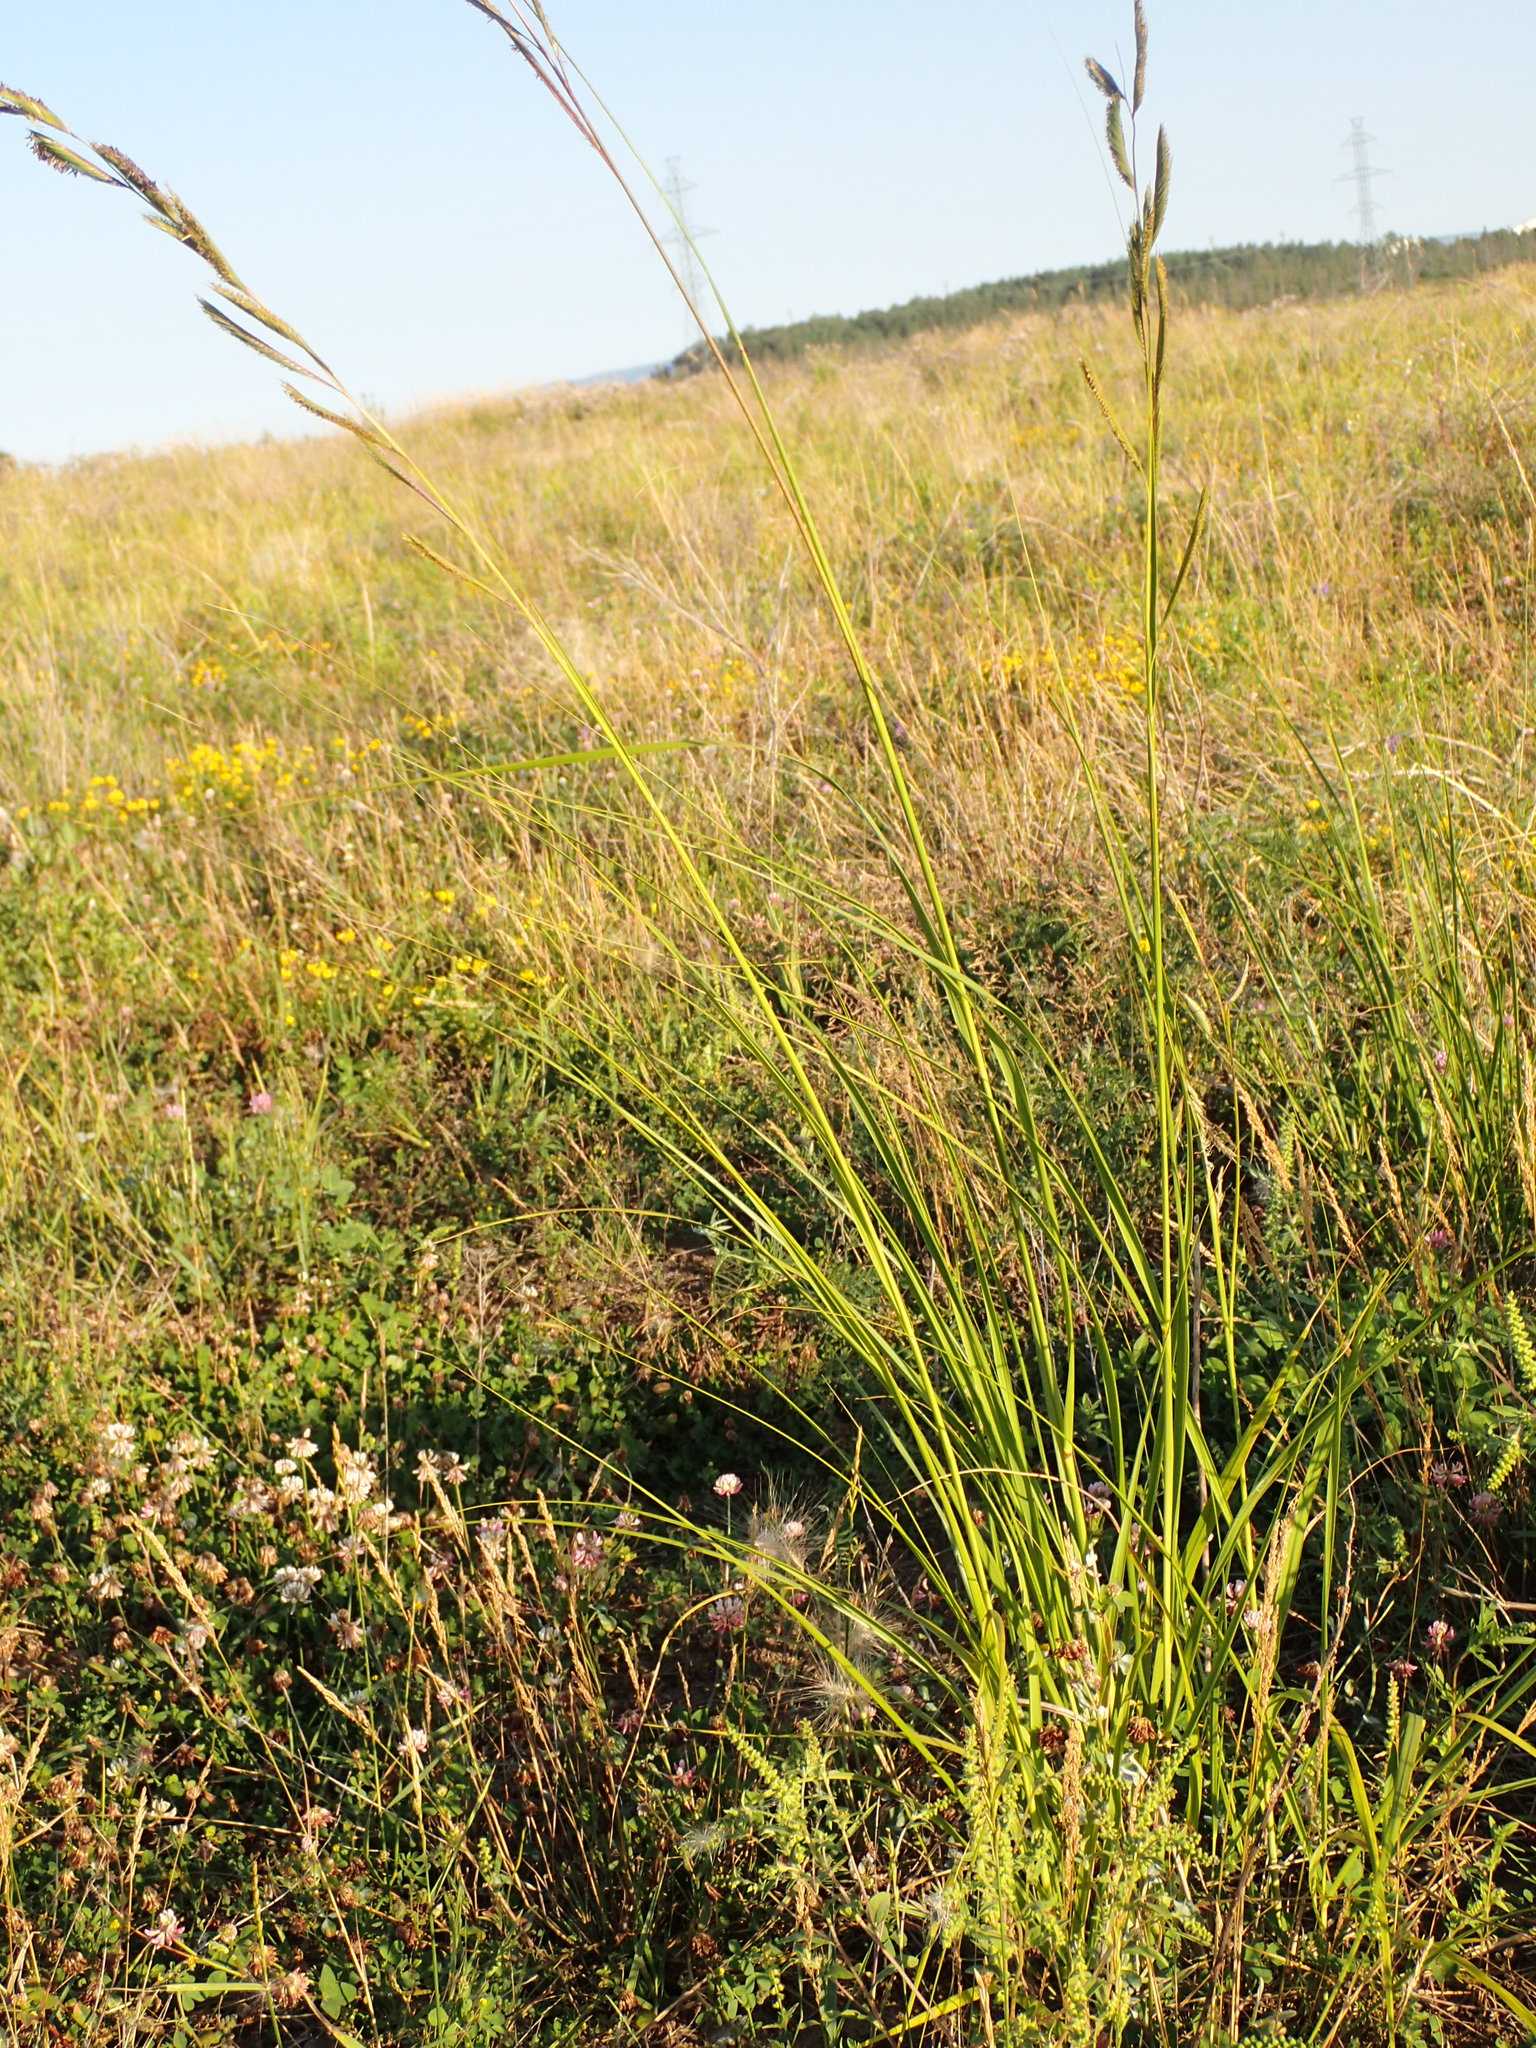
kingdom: Plantae
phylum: Tracheophyta
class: Liliopsida
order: Poales
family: Poaceae
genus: Sporobolus
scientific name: Sporobolus michauxianus
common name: Freshwater cordgrass
